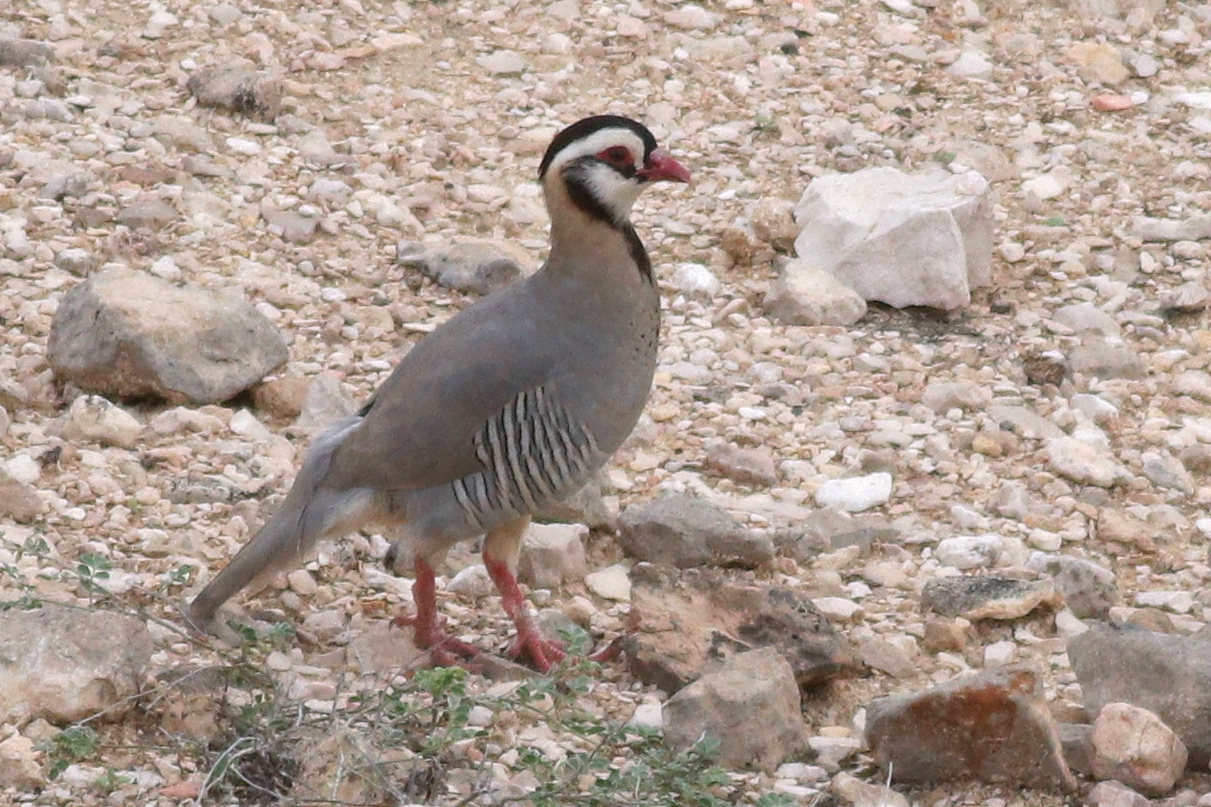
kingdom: Animalia
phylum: Chordata
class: Aves
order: Galliformes
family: Phasianidae
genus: Alectoris
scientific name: Alectoris melanocephala
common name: Arabian partridge
